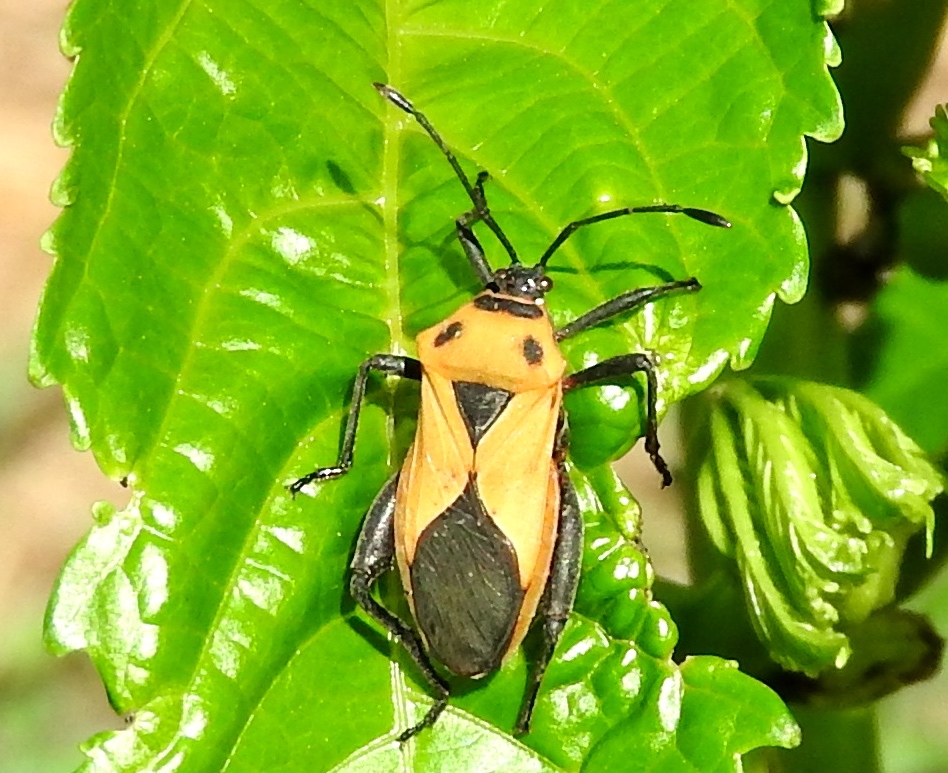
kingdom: Animalia
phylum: Arthropoda
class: Insecta
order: Hemiptera
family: Coreidae
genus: Sagotylus
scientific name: Sagotylus confluens
